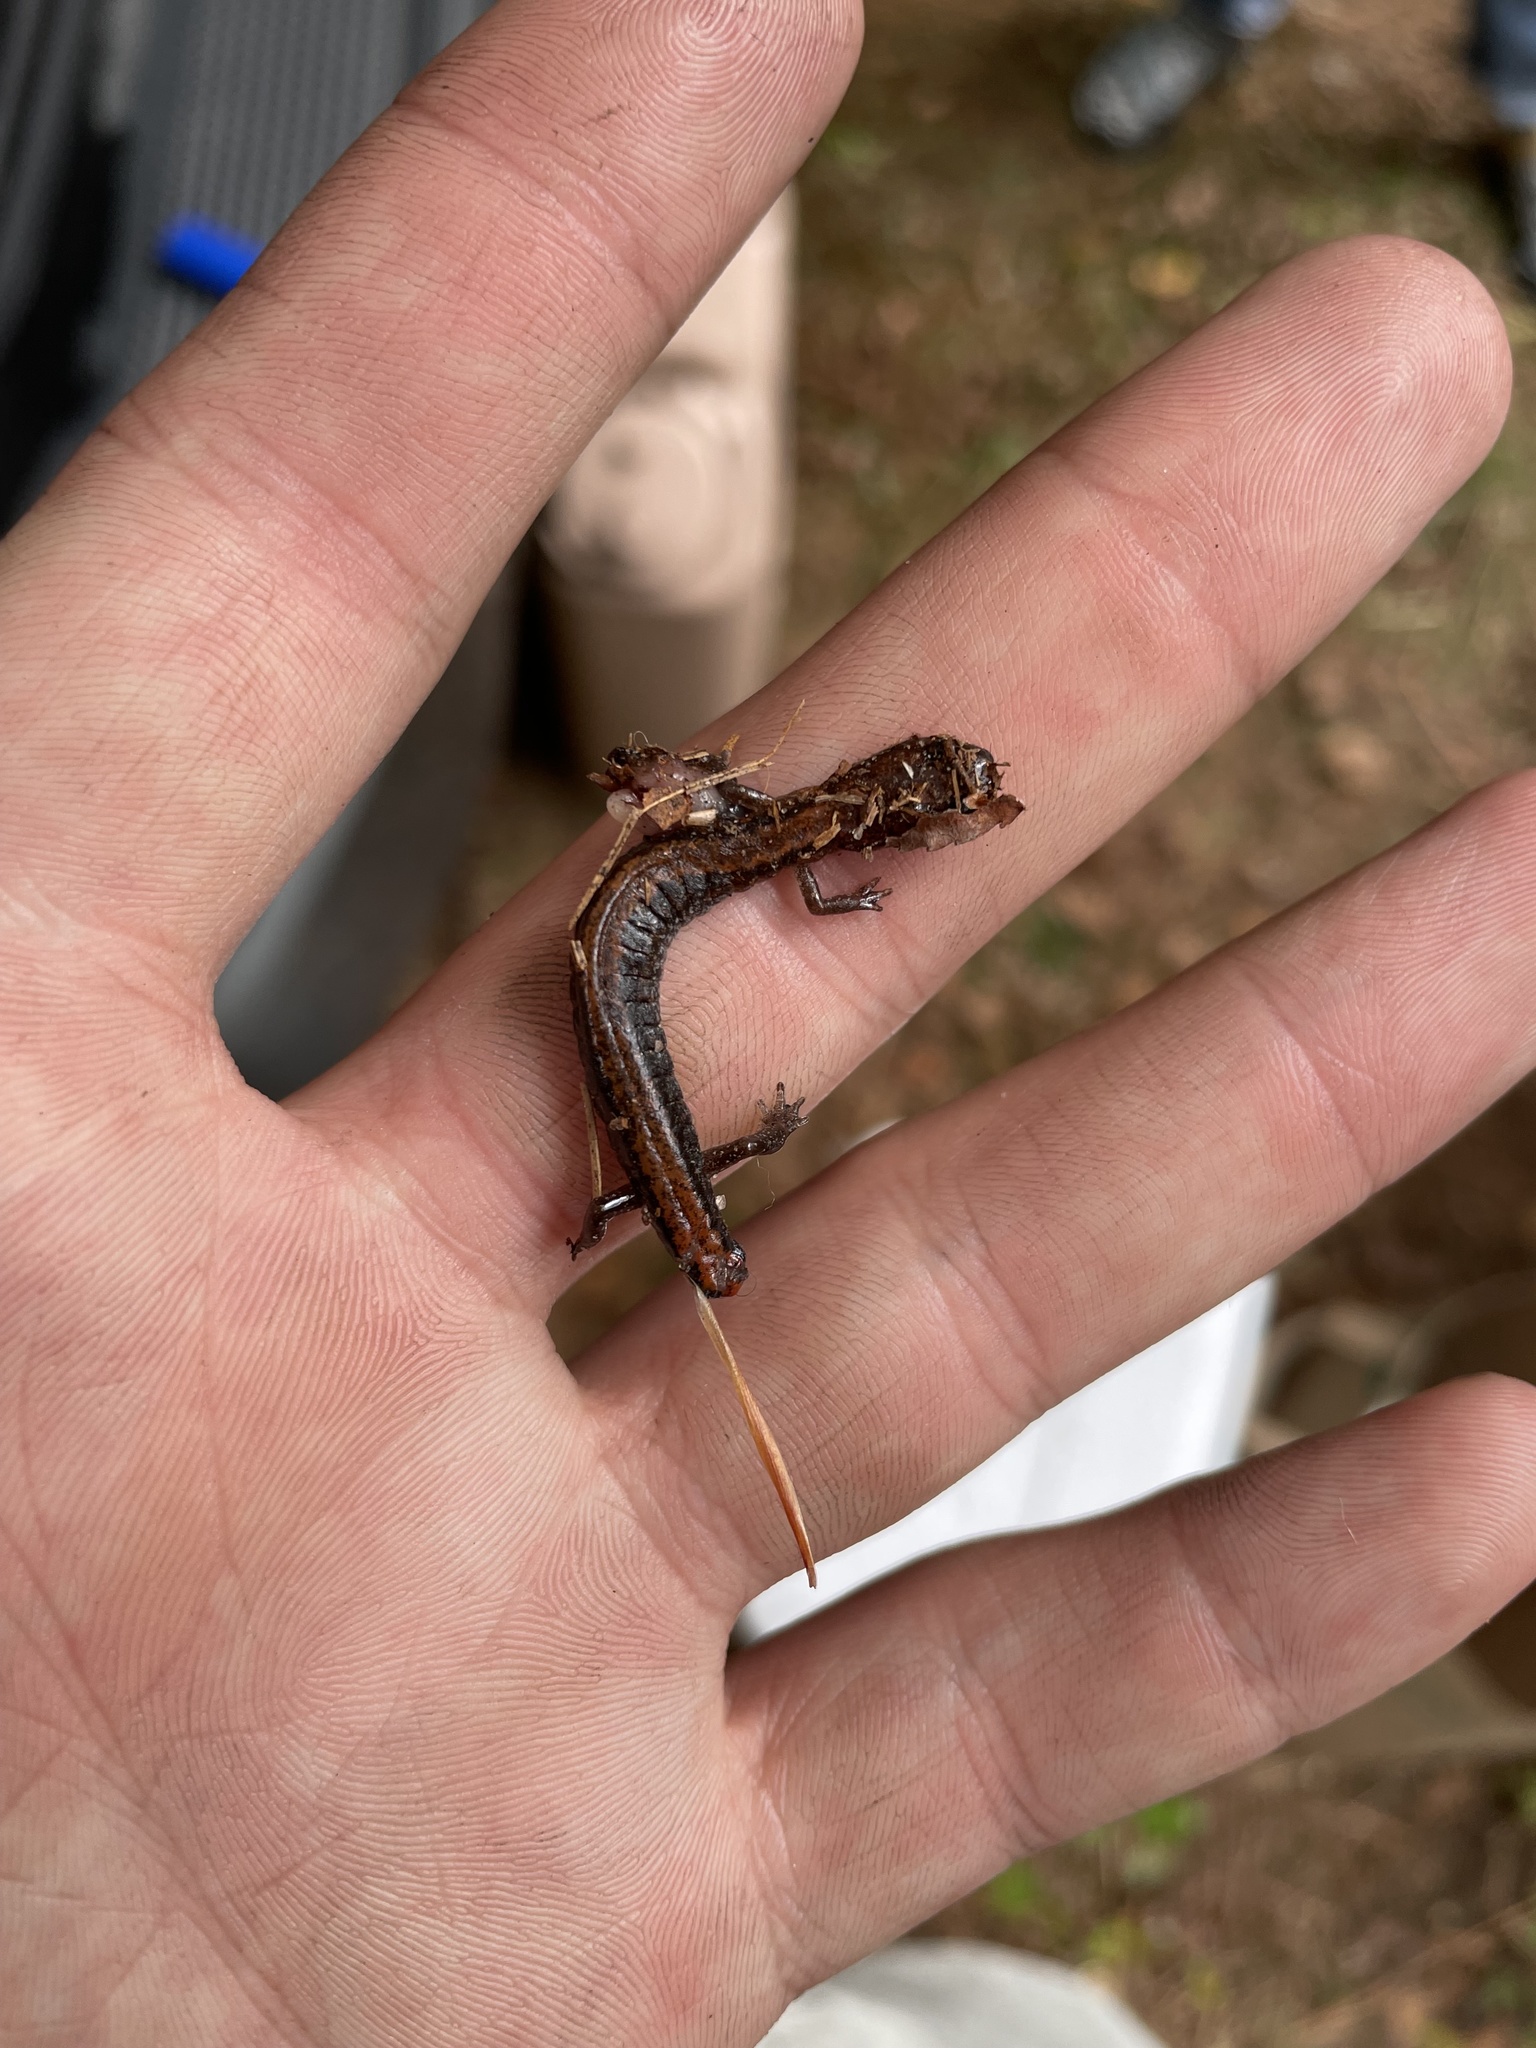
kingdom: Animalia
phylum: Chordata
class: Amphibia
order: Caudata
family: Plethodontidae
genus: Plethodon
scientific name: Plethodon cinereus
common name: Redback salamander
